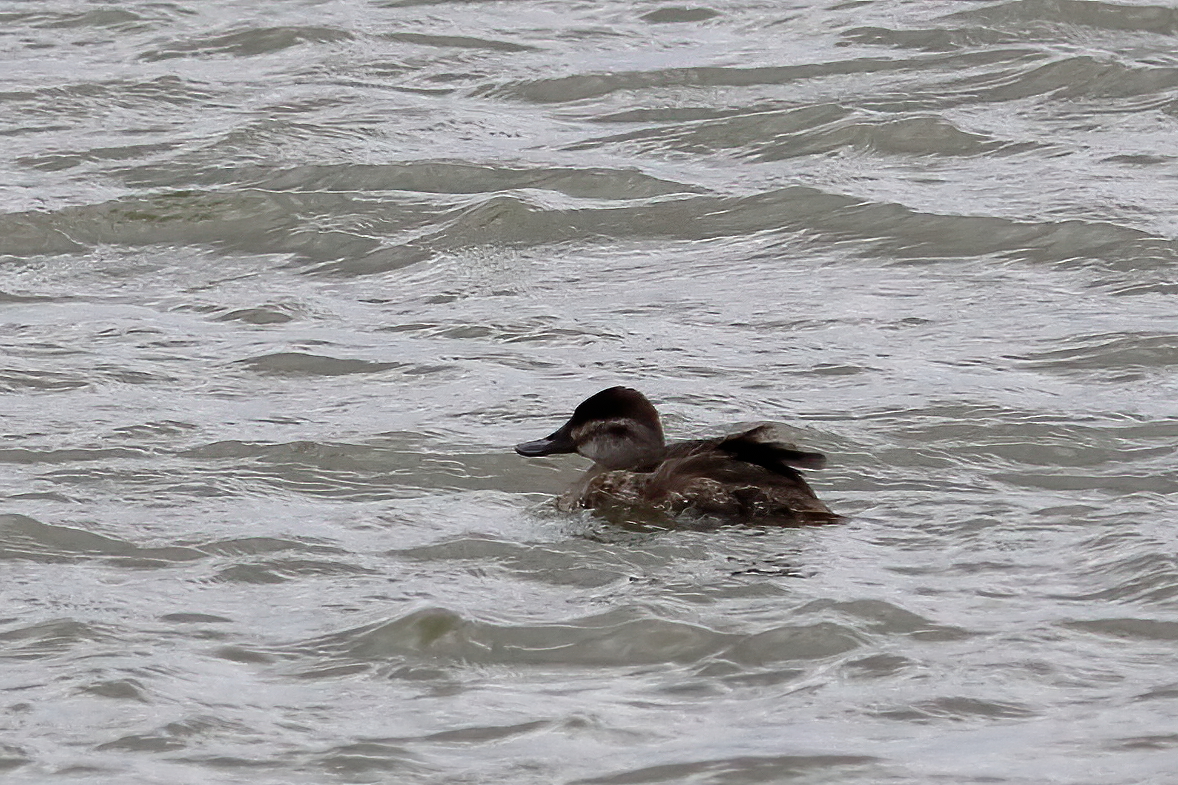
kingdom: Animalia
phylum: Chordata
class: Aves
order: Anseriformes
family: Anatidae
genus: Oxyura
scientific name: Oxyura jamaicensis
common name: Ruddy duck
